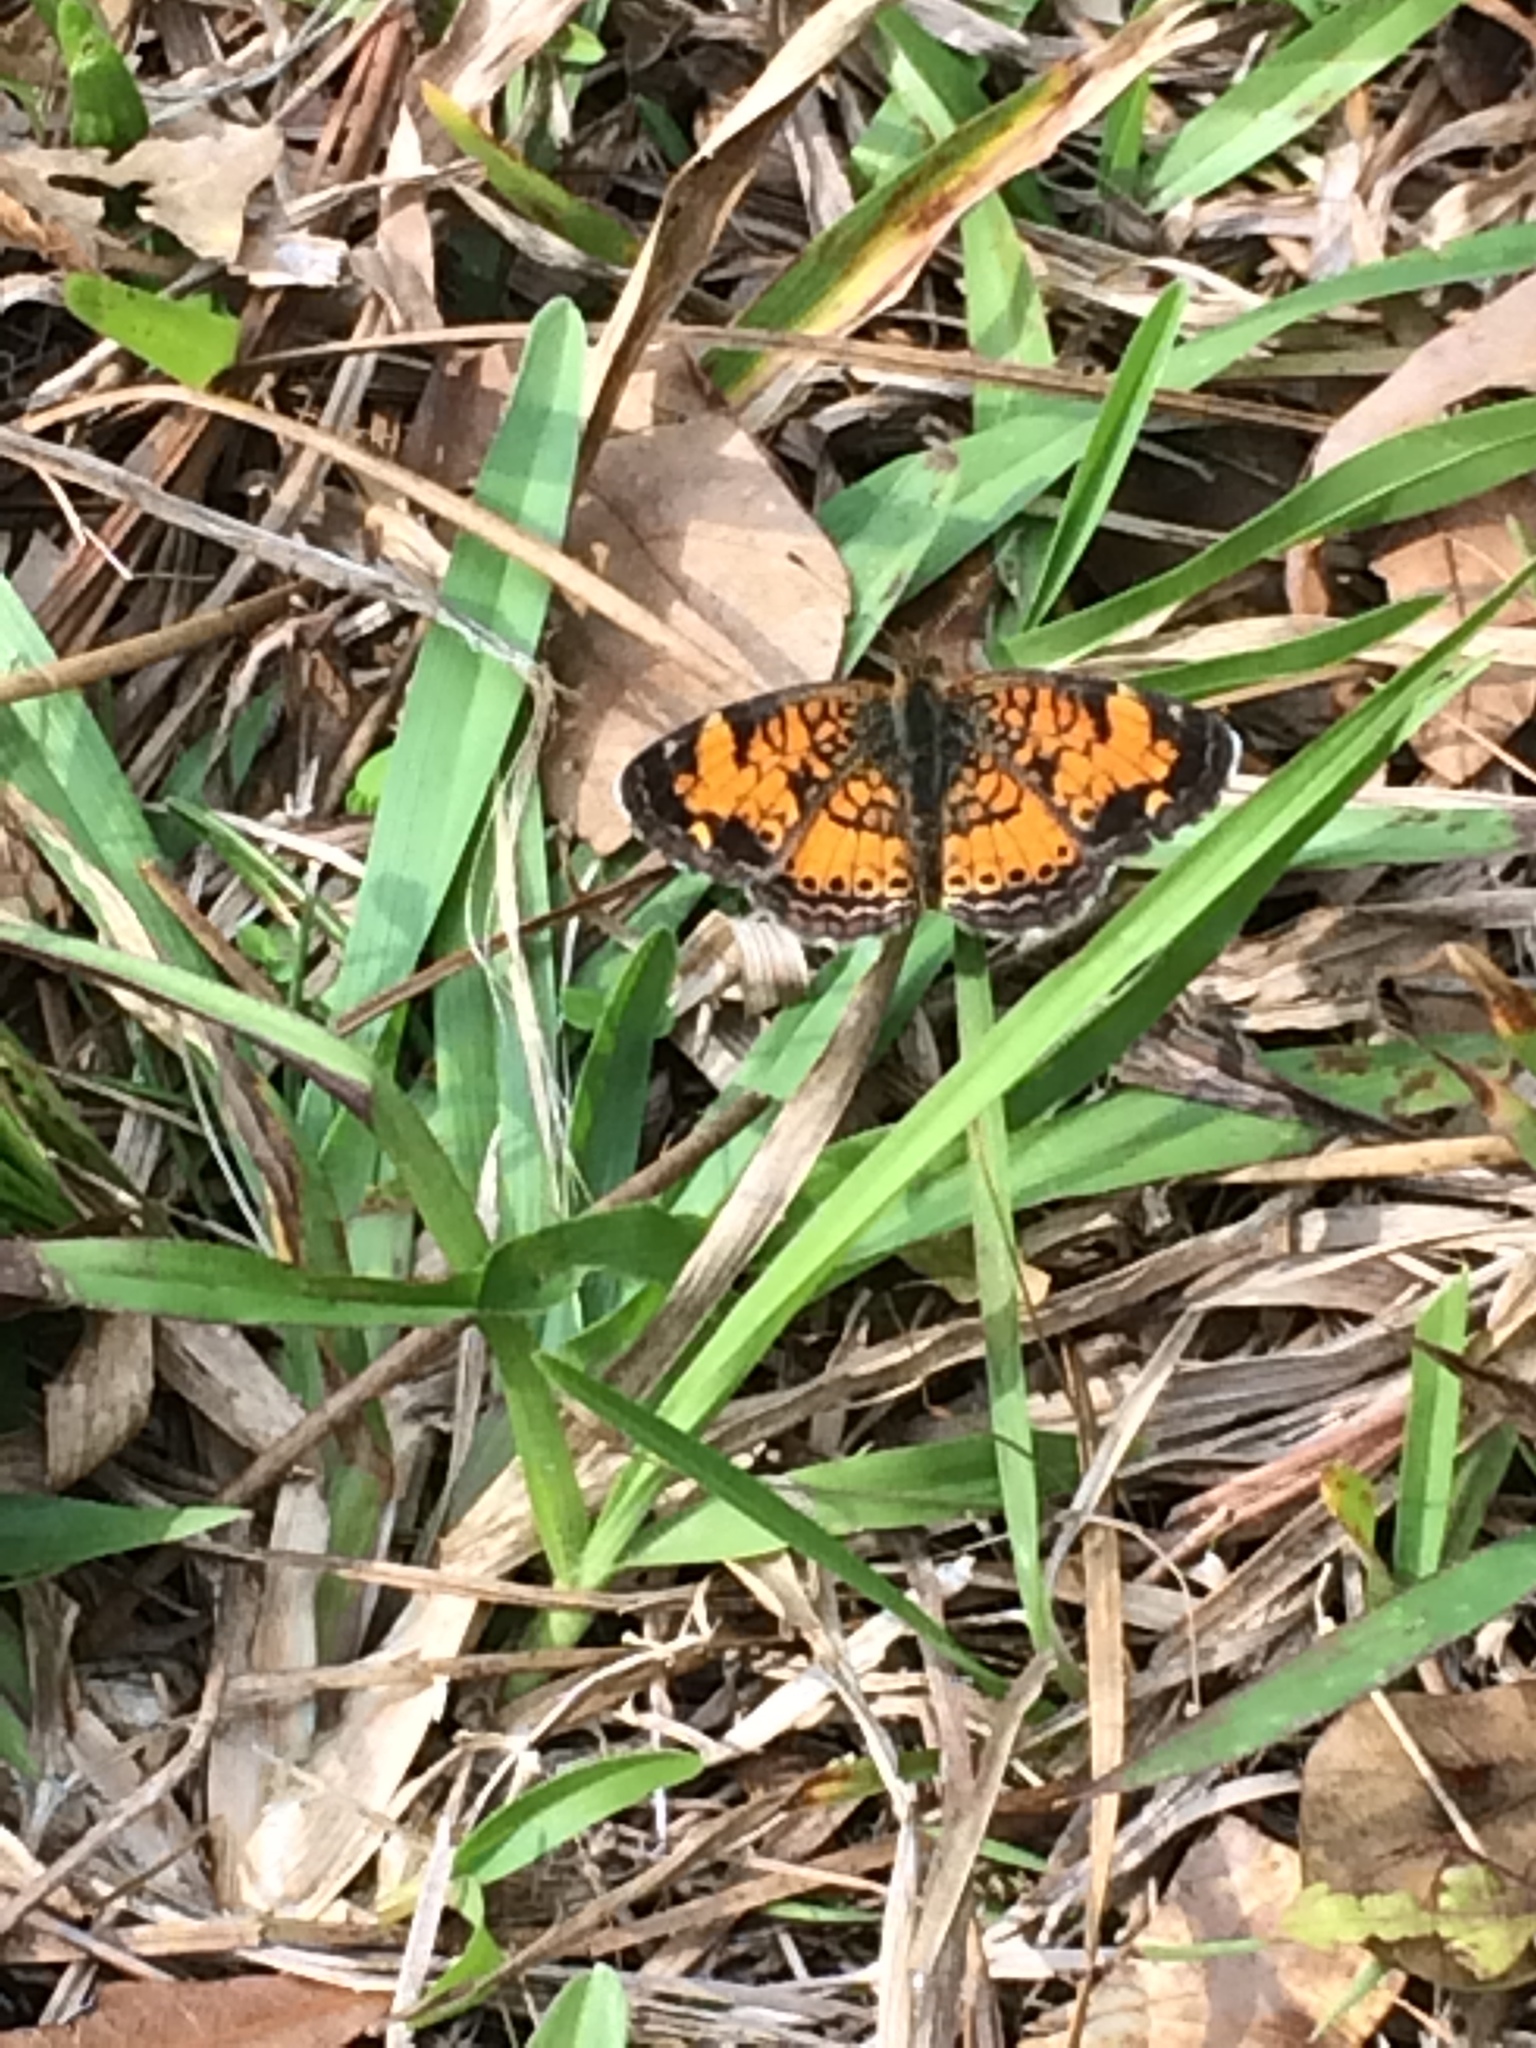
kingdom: Animalia
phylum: Arthropoda
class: Insecta
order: Lepidoptera
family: Nymphalidae
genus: Phyciodes
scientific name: Phyciodes tharos
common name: Pearl crescent
